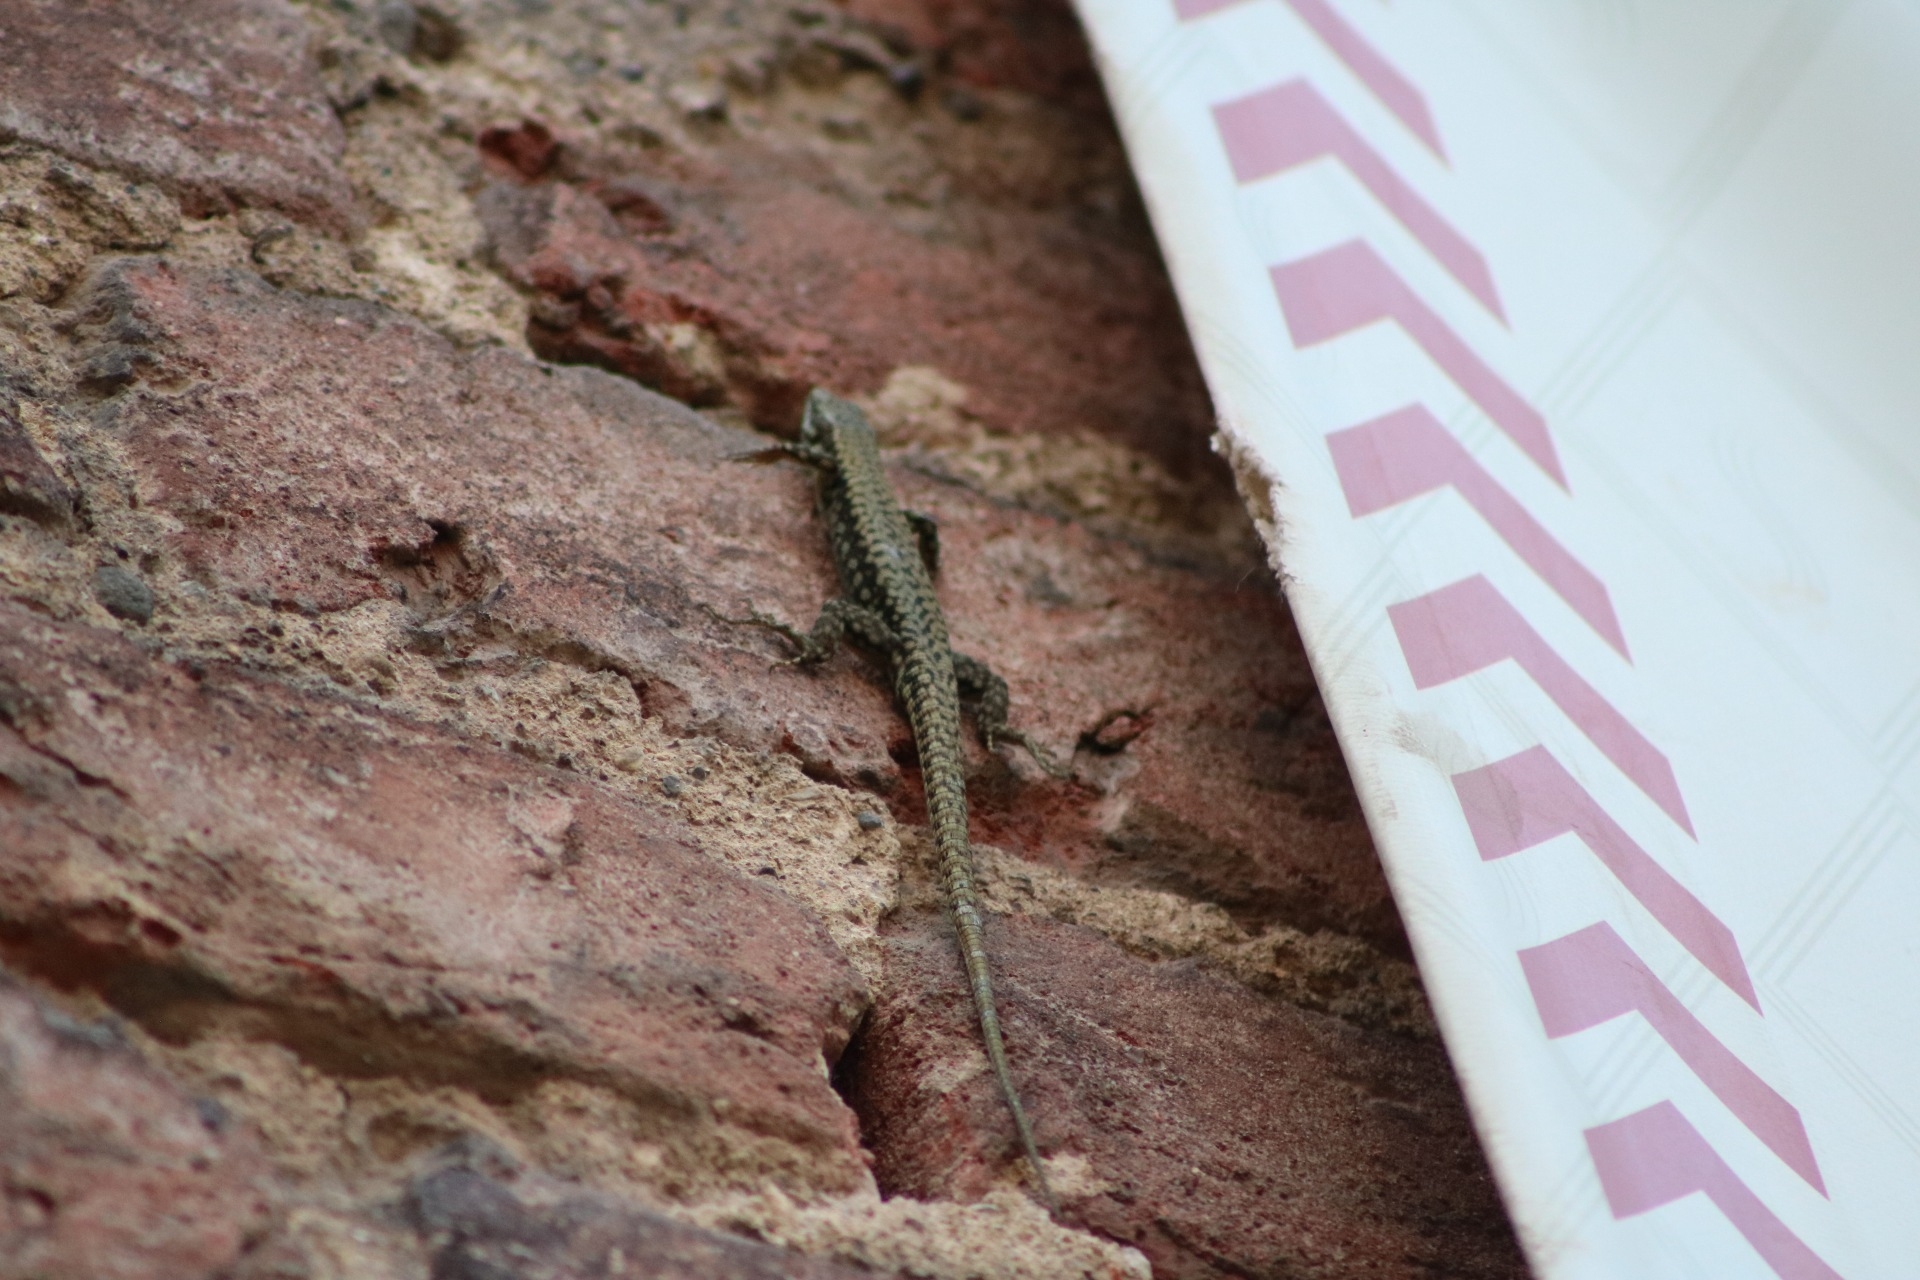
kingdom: Animalia
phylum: Chordata
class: Squamata
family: Lacertidae
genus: Podarcis
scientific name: Podarcis muralis
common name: Common wall lizard
